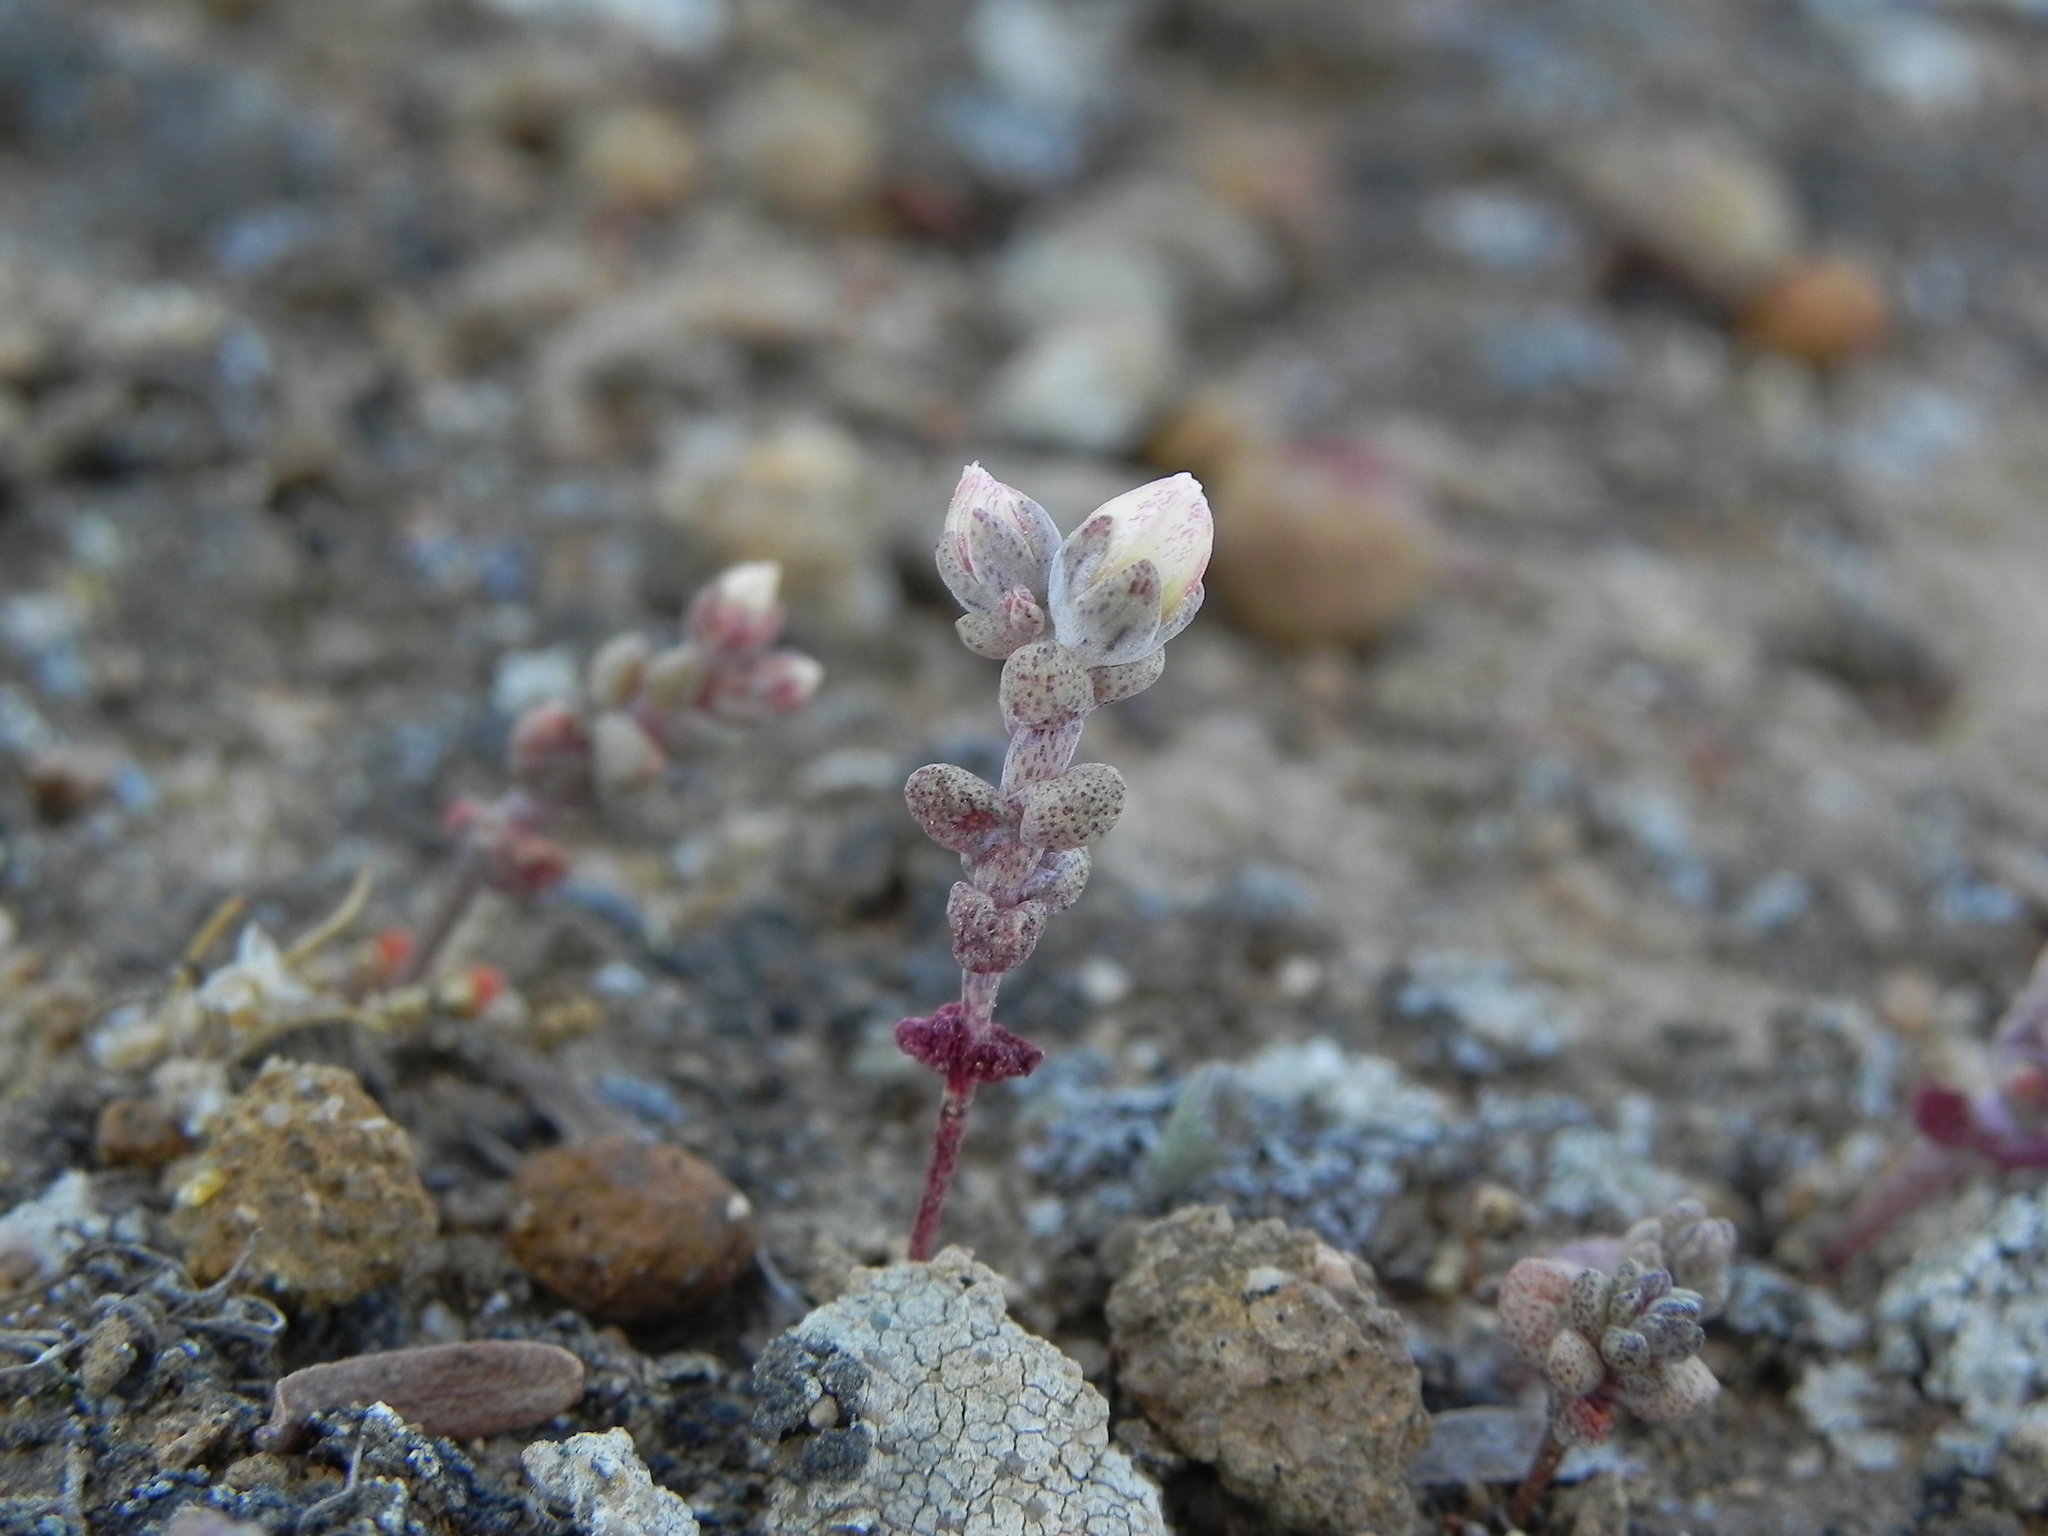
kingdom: Plantae
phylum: Tracheophyta
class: Magnoliopsida
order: Saxifragales
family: Crassulaceae
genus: Dudleya
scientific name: Dudleya blochmaniae
